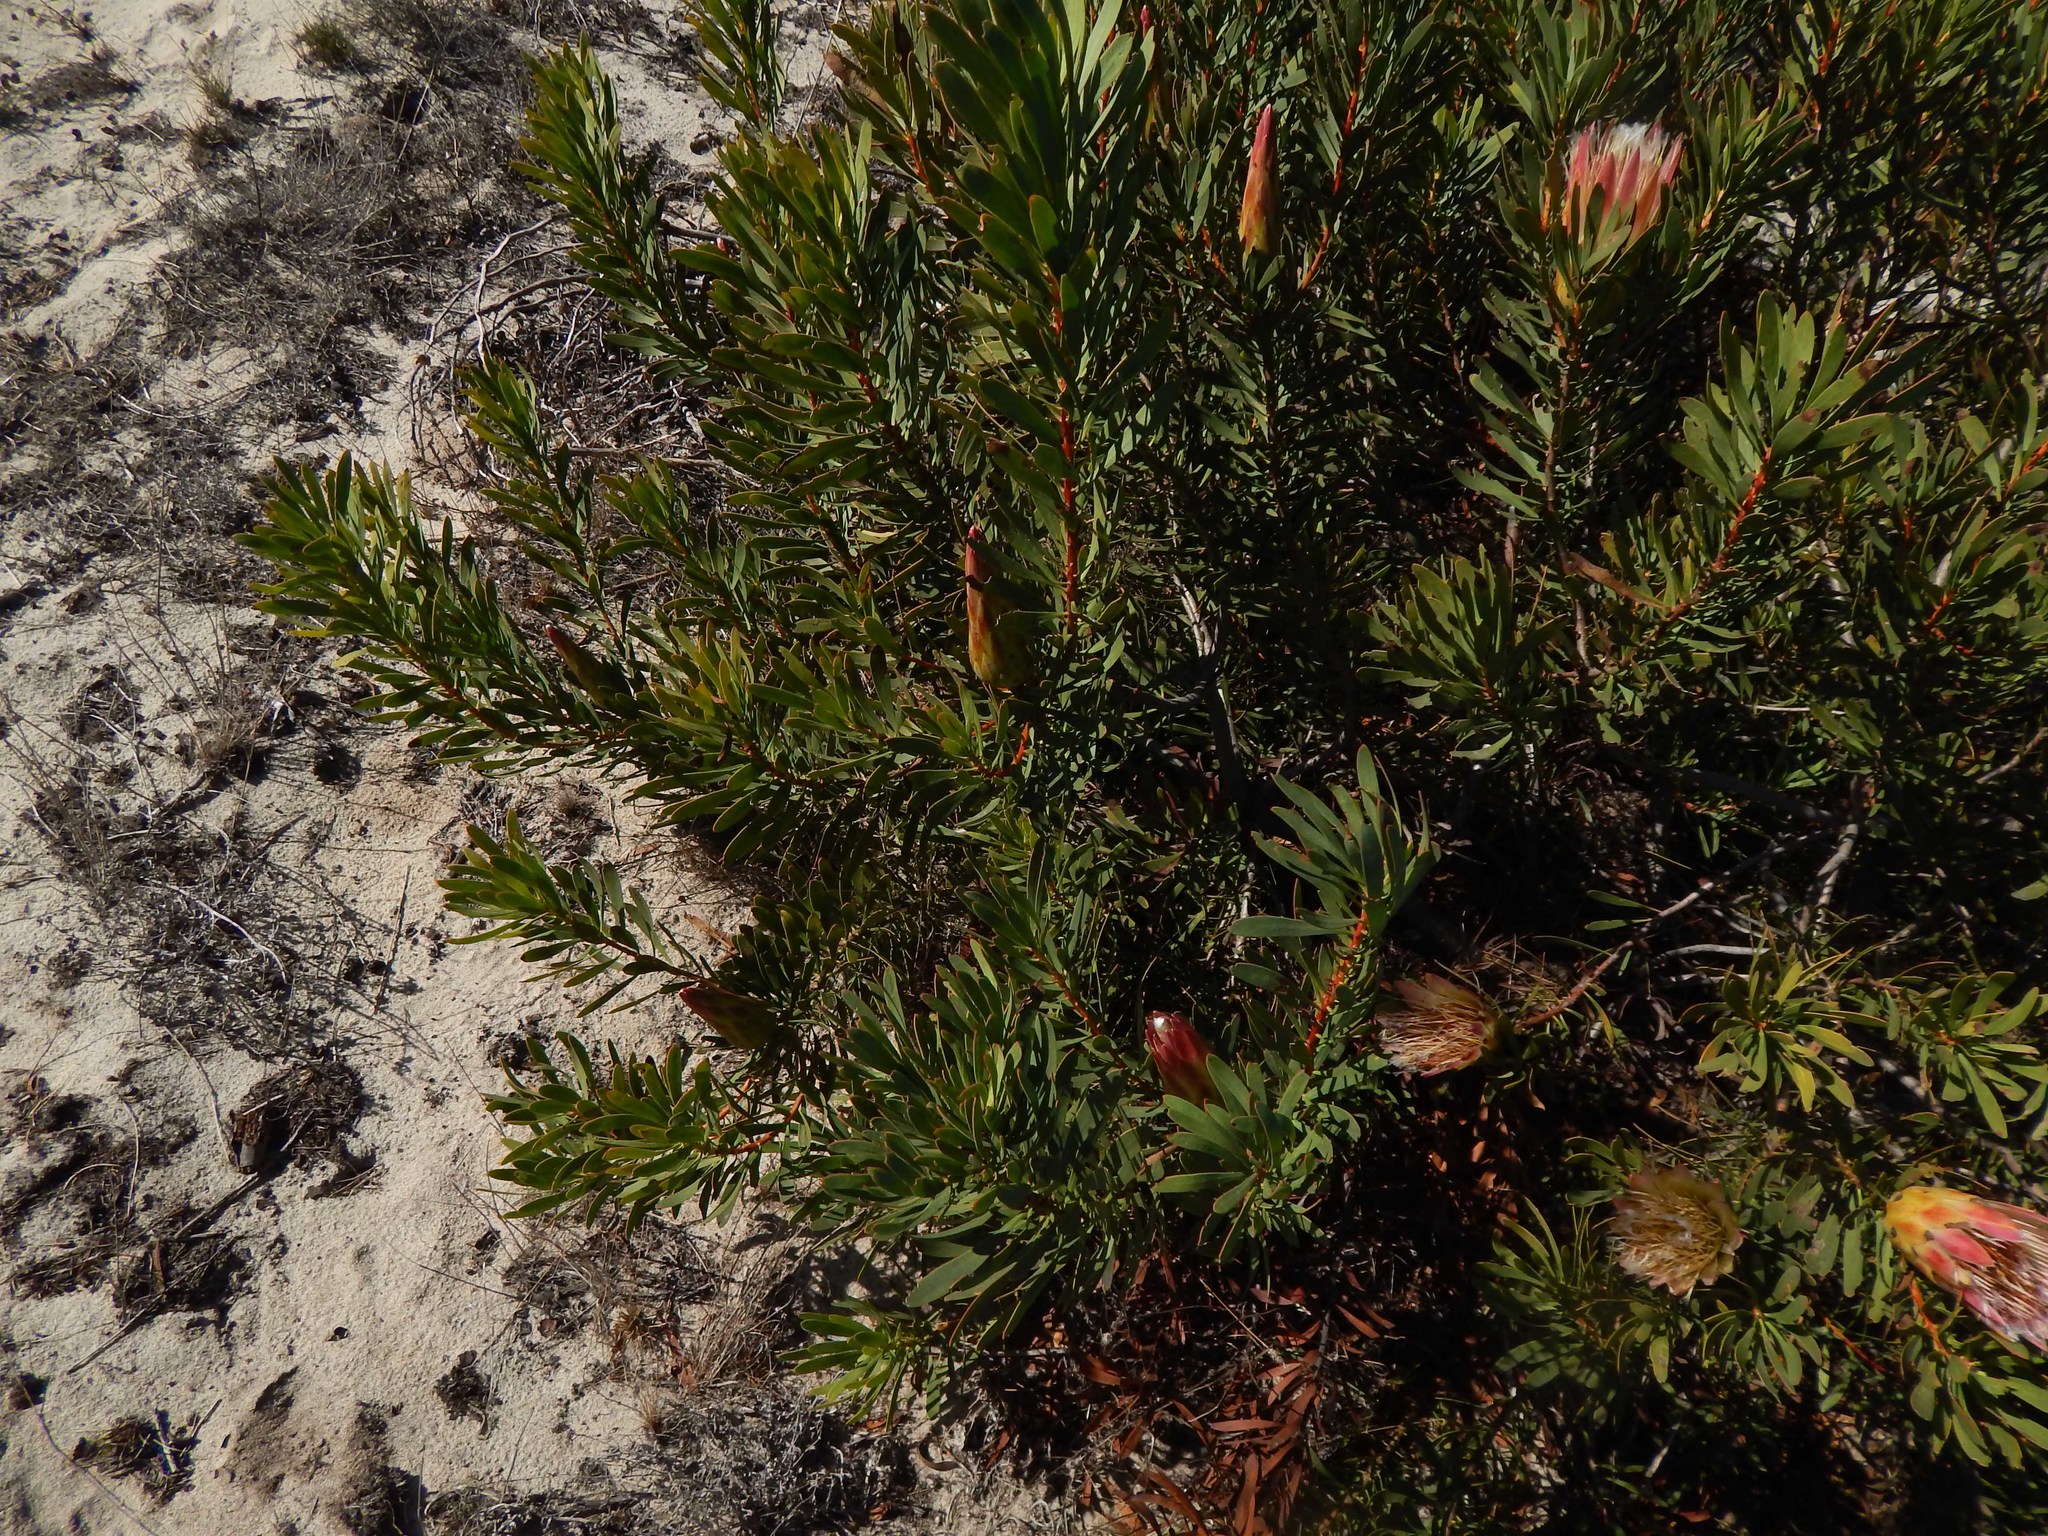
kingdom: Plantae
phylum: Tracheophyta
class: Magnoliopsida
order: Proteales
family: Proteaceae
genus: Protea
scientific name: Protea repens
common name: Sugarbush
